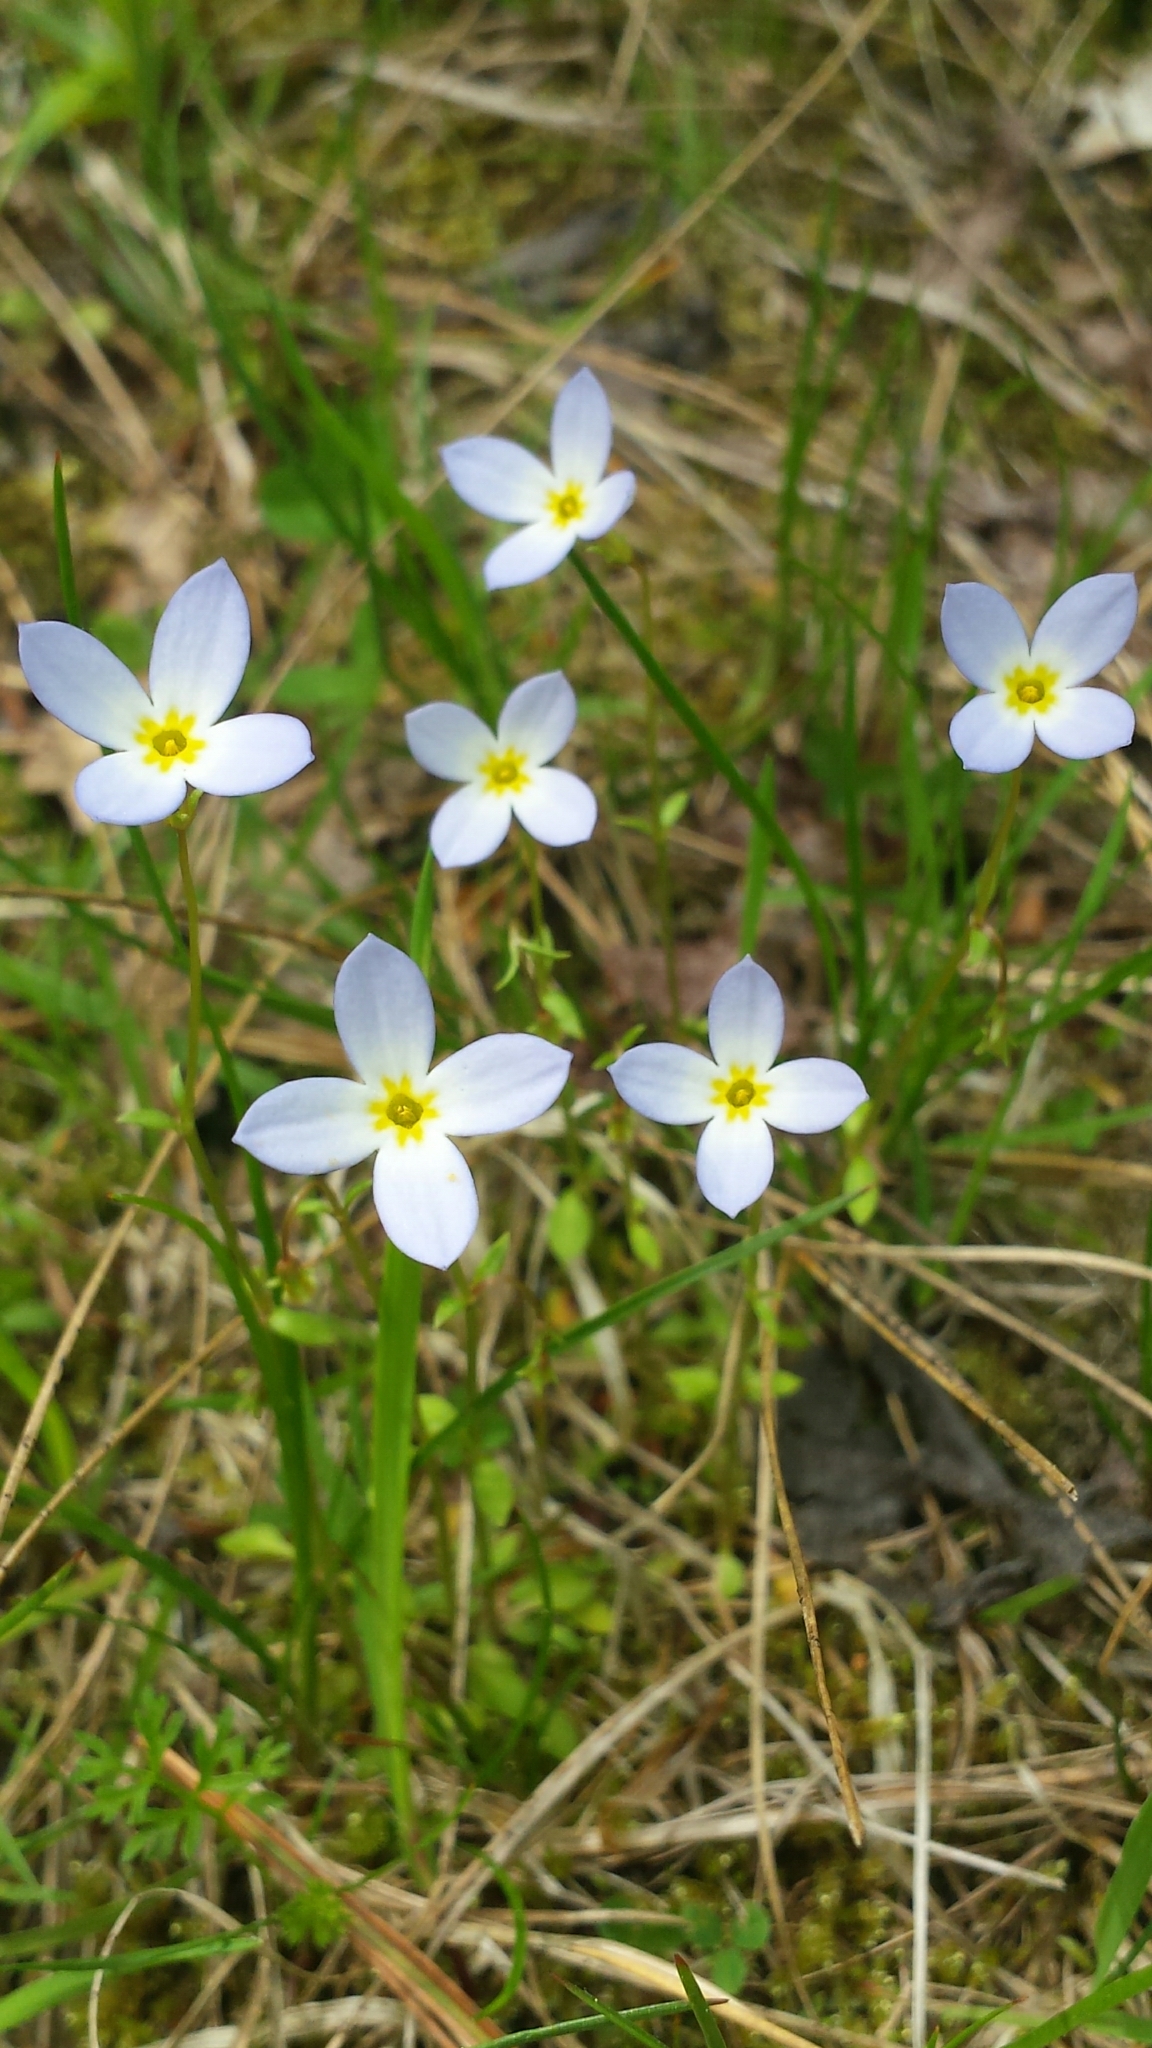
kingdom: Plantae
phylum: Tracheophyta
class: Magnoliopsida
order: Gentianales
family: Rubiaceae
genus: Houstonia
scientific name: Houstonia caerulea
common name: Bluets
